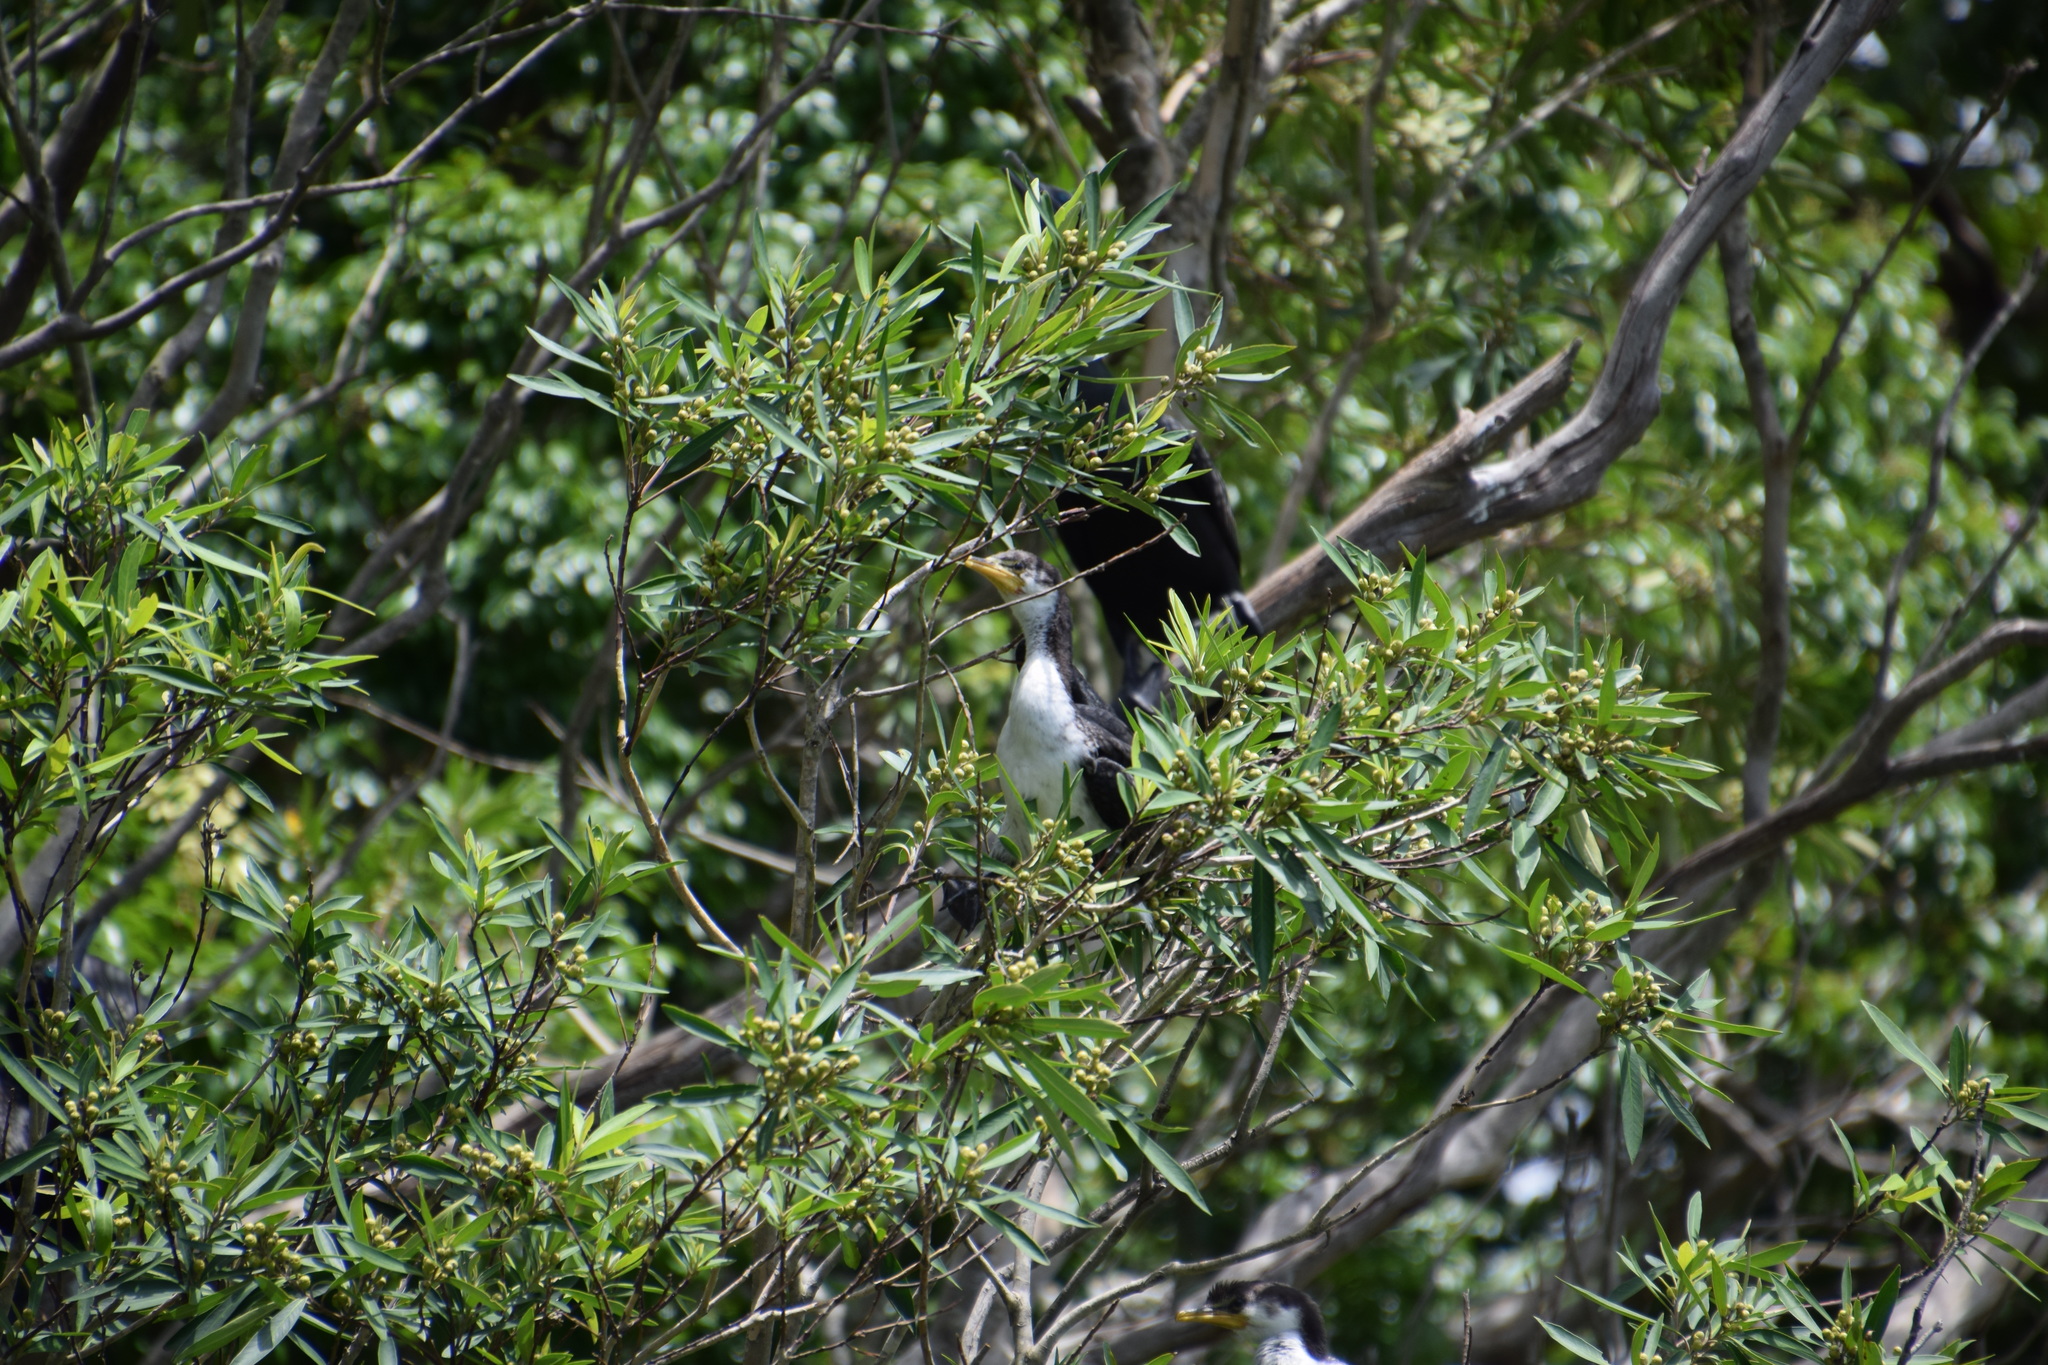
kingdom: Animalia
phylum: Chordata
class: Aves
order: Suliformes
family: Phalacrocoracidae
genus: Microcarbo
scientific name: Microcarbo melanoleucos
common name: Little pied cormorant
